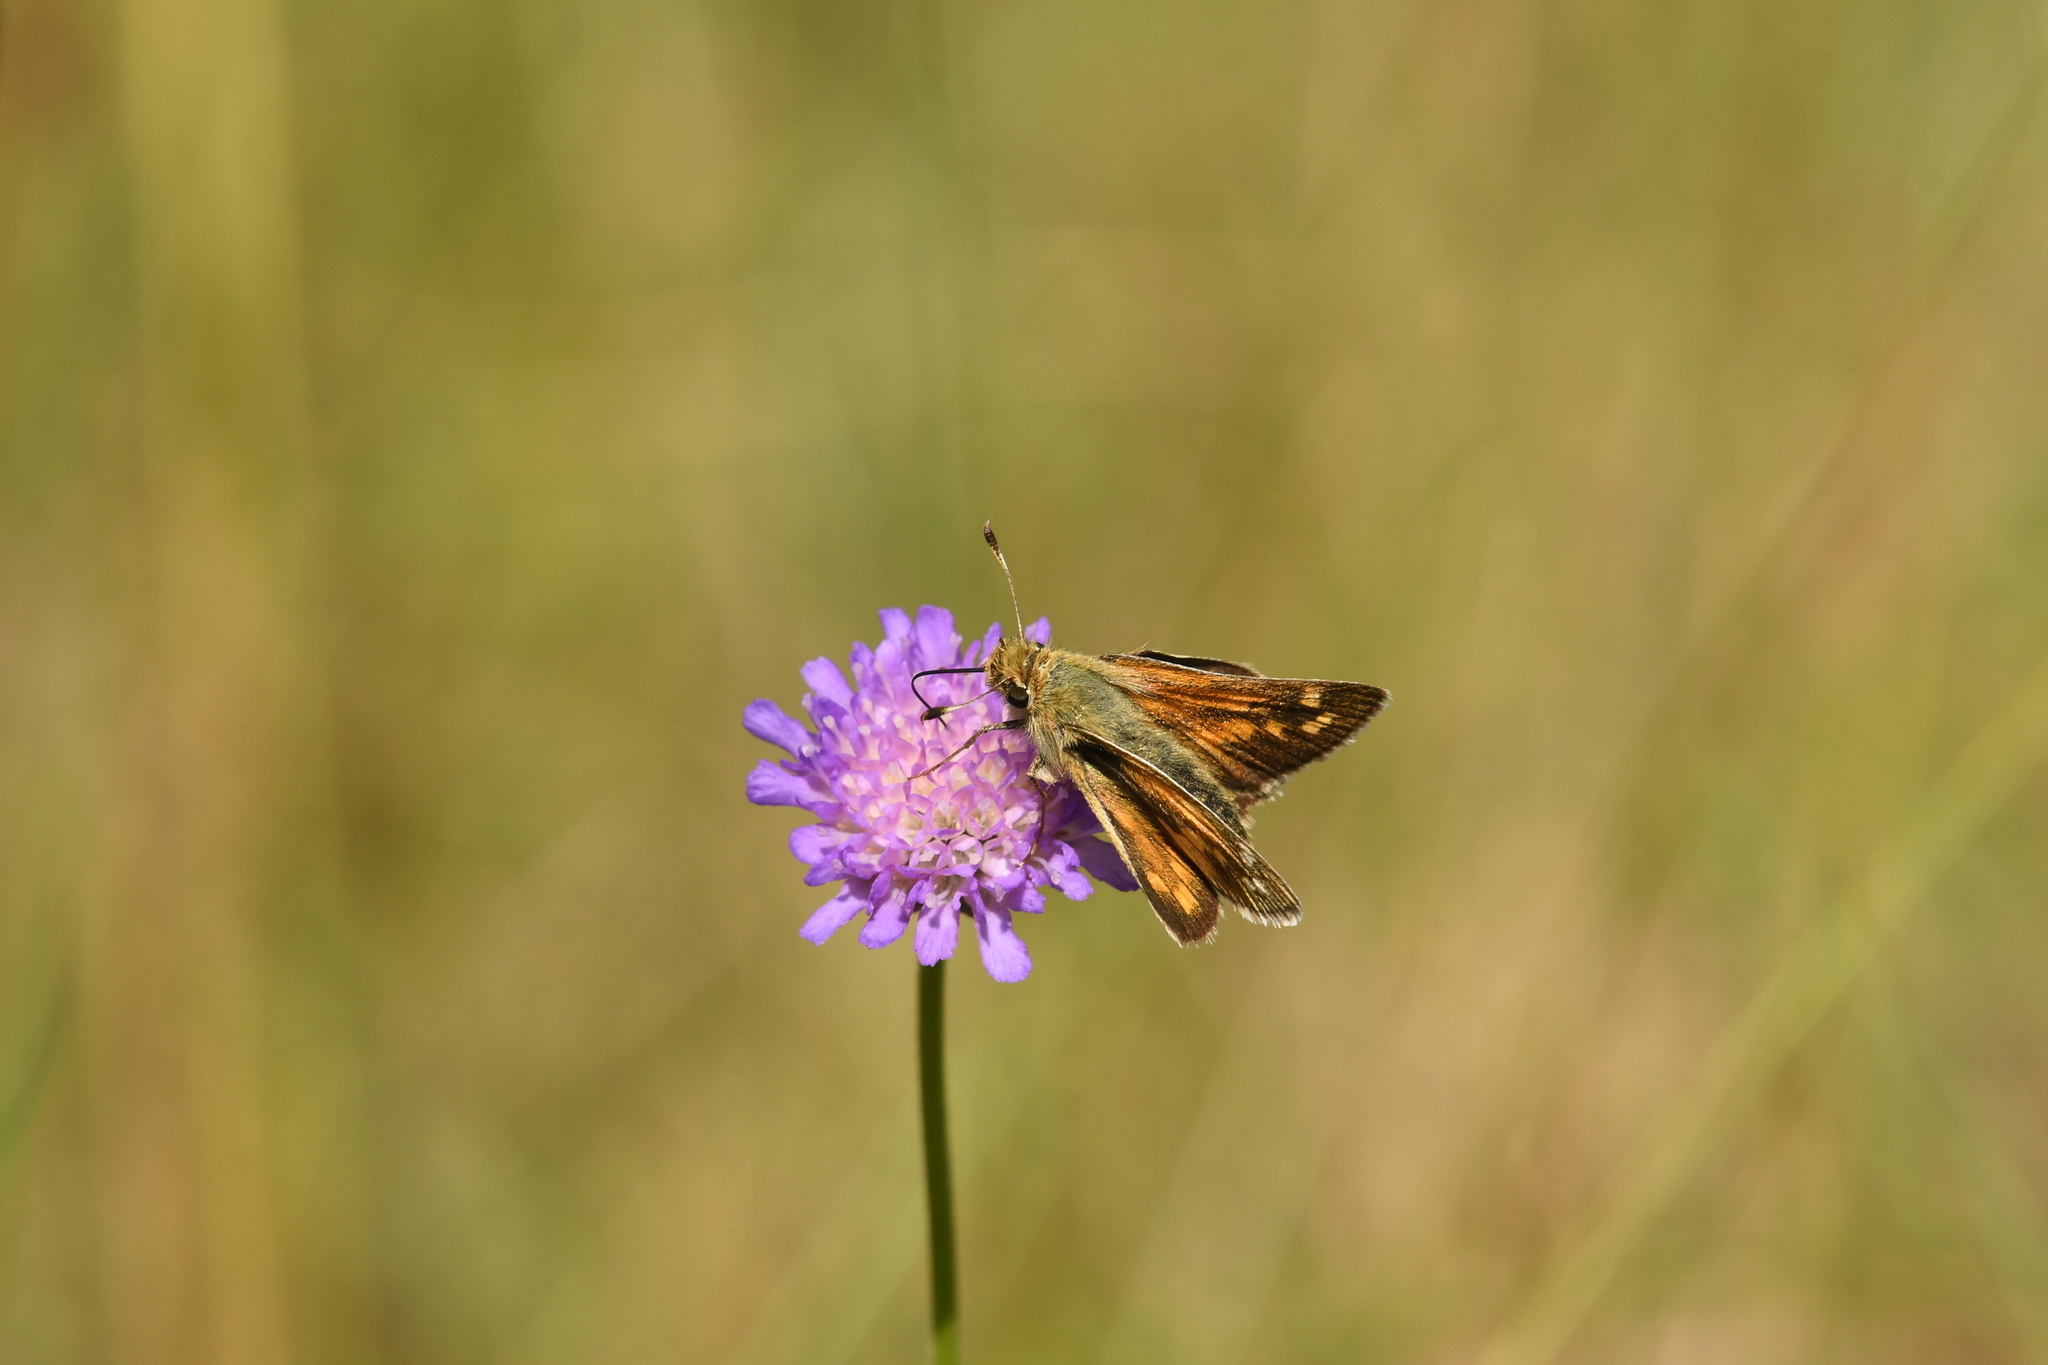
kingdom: Animalia
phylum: Arthropoda
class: Insecta
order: Lepidoptera
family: Hesperiidae
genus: Hesperia
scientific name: Hesperia comma
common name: Common branded skipper
